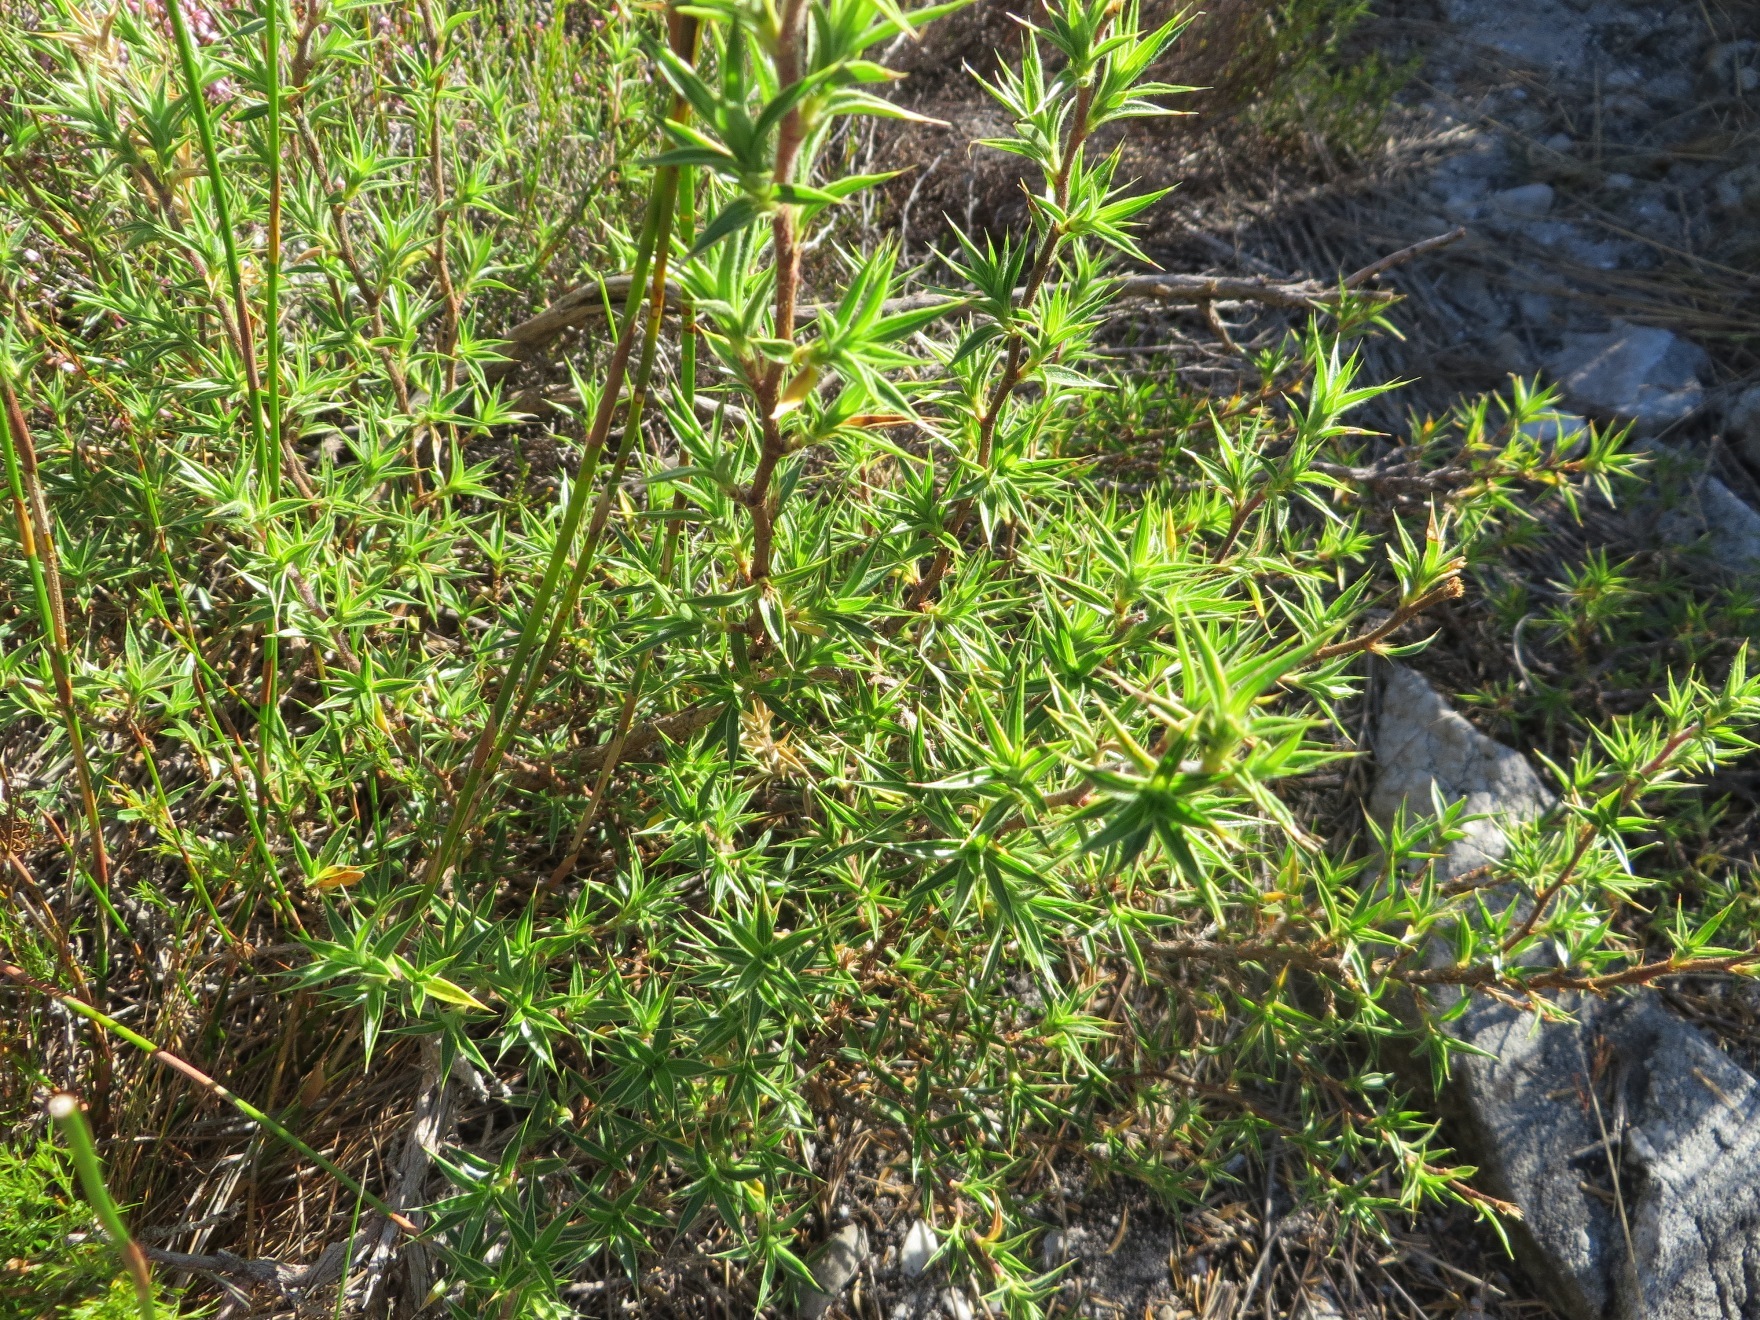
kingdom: Plantae
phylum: Tracheophyta
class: Magnoliopsida
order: Rosales
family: Rosaceae
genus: Cliffortia
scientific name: Cliffortia ruscifolia
